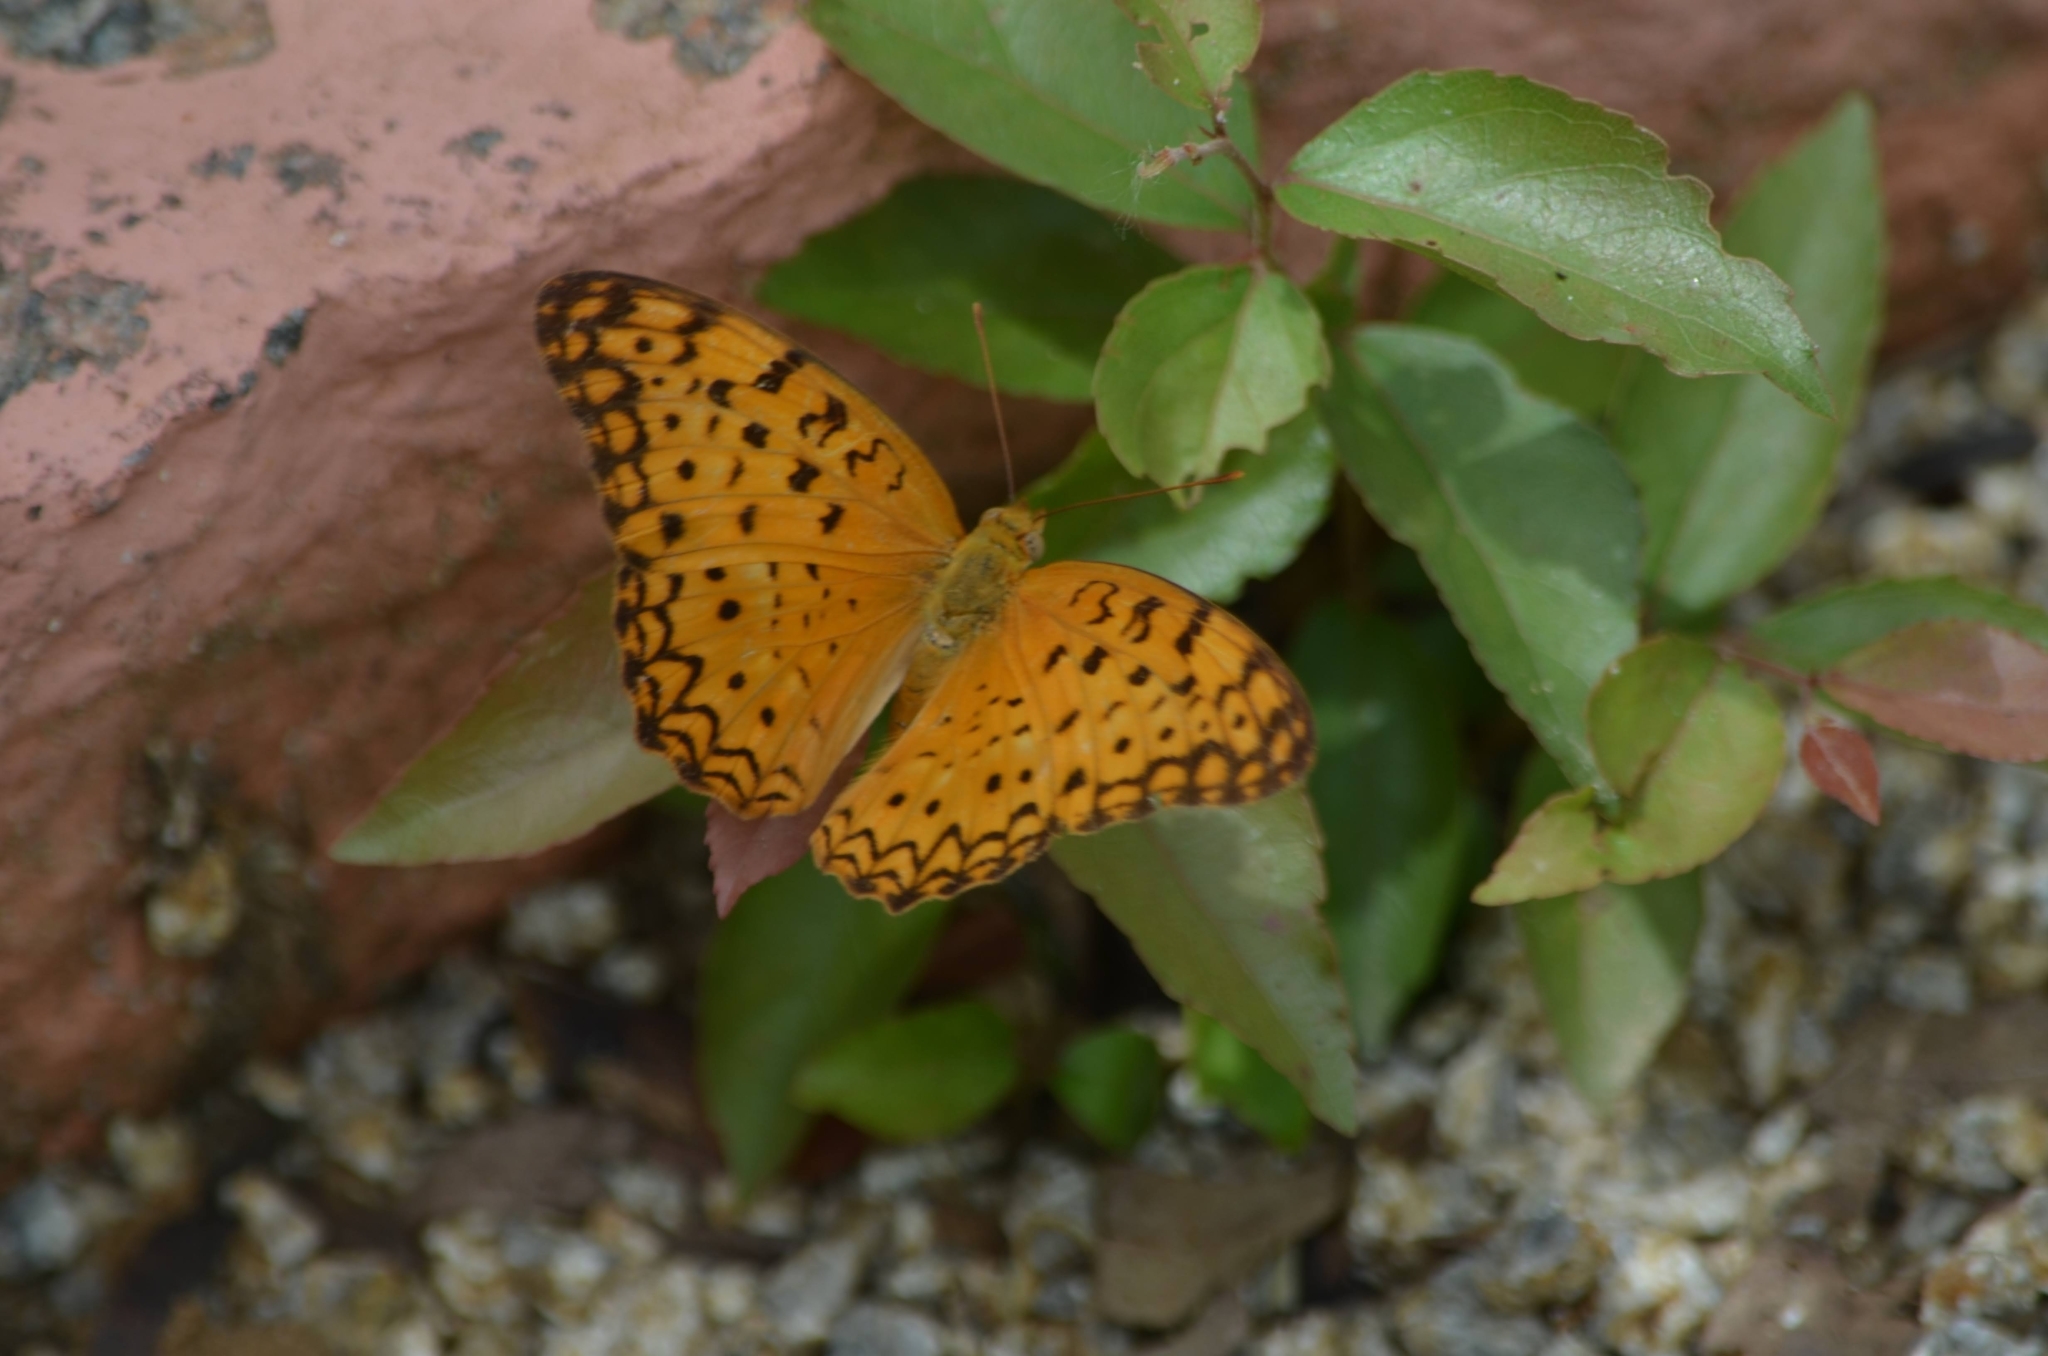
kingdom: Animalia
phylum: Arthropoda
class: Insecta
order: Lepidoptera
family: Nymphalidae
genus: Phalanta
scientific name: Phalanta phalantha
